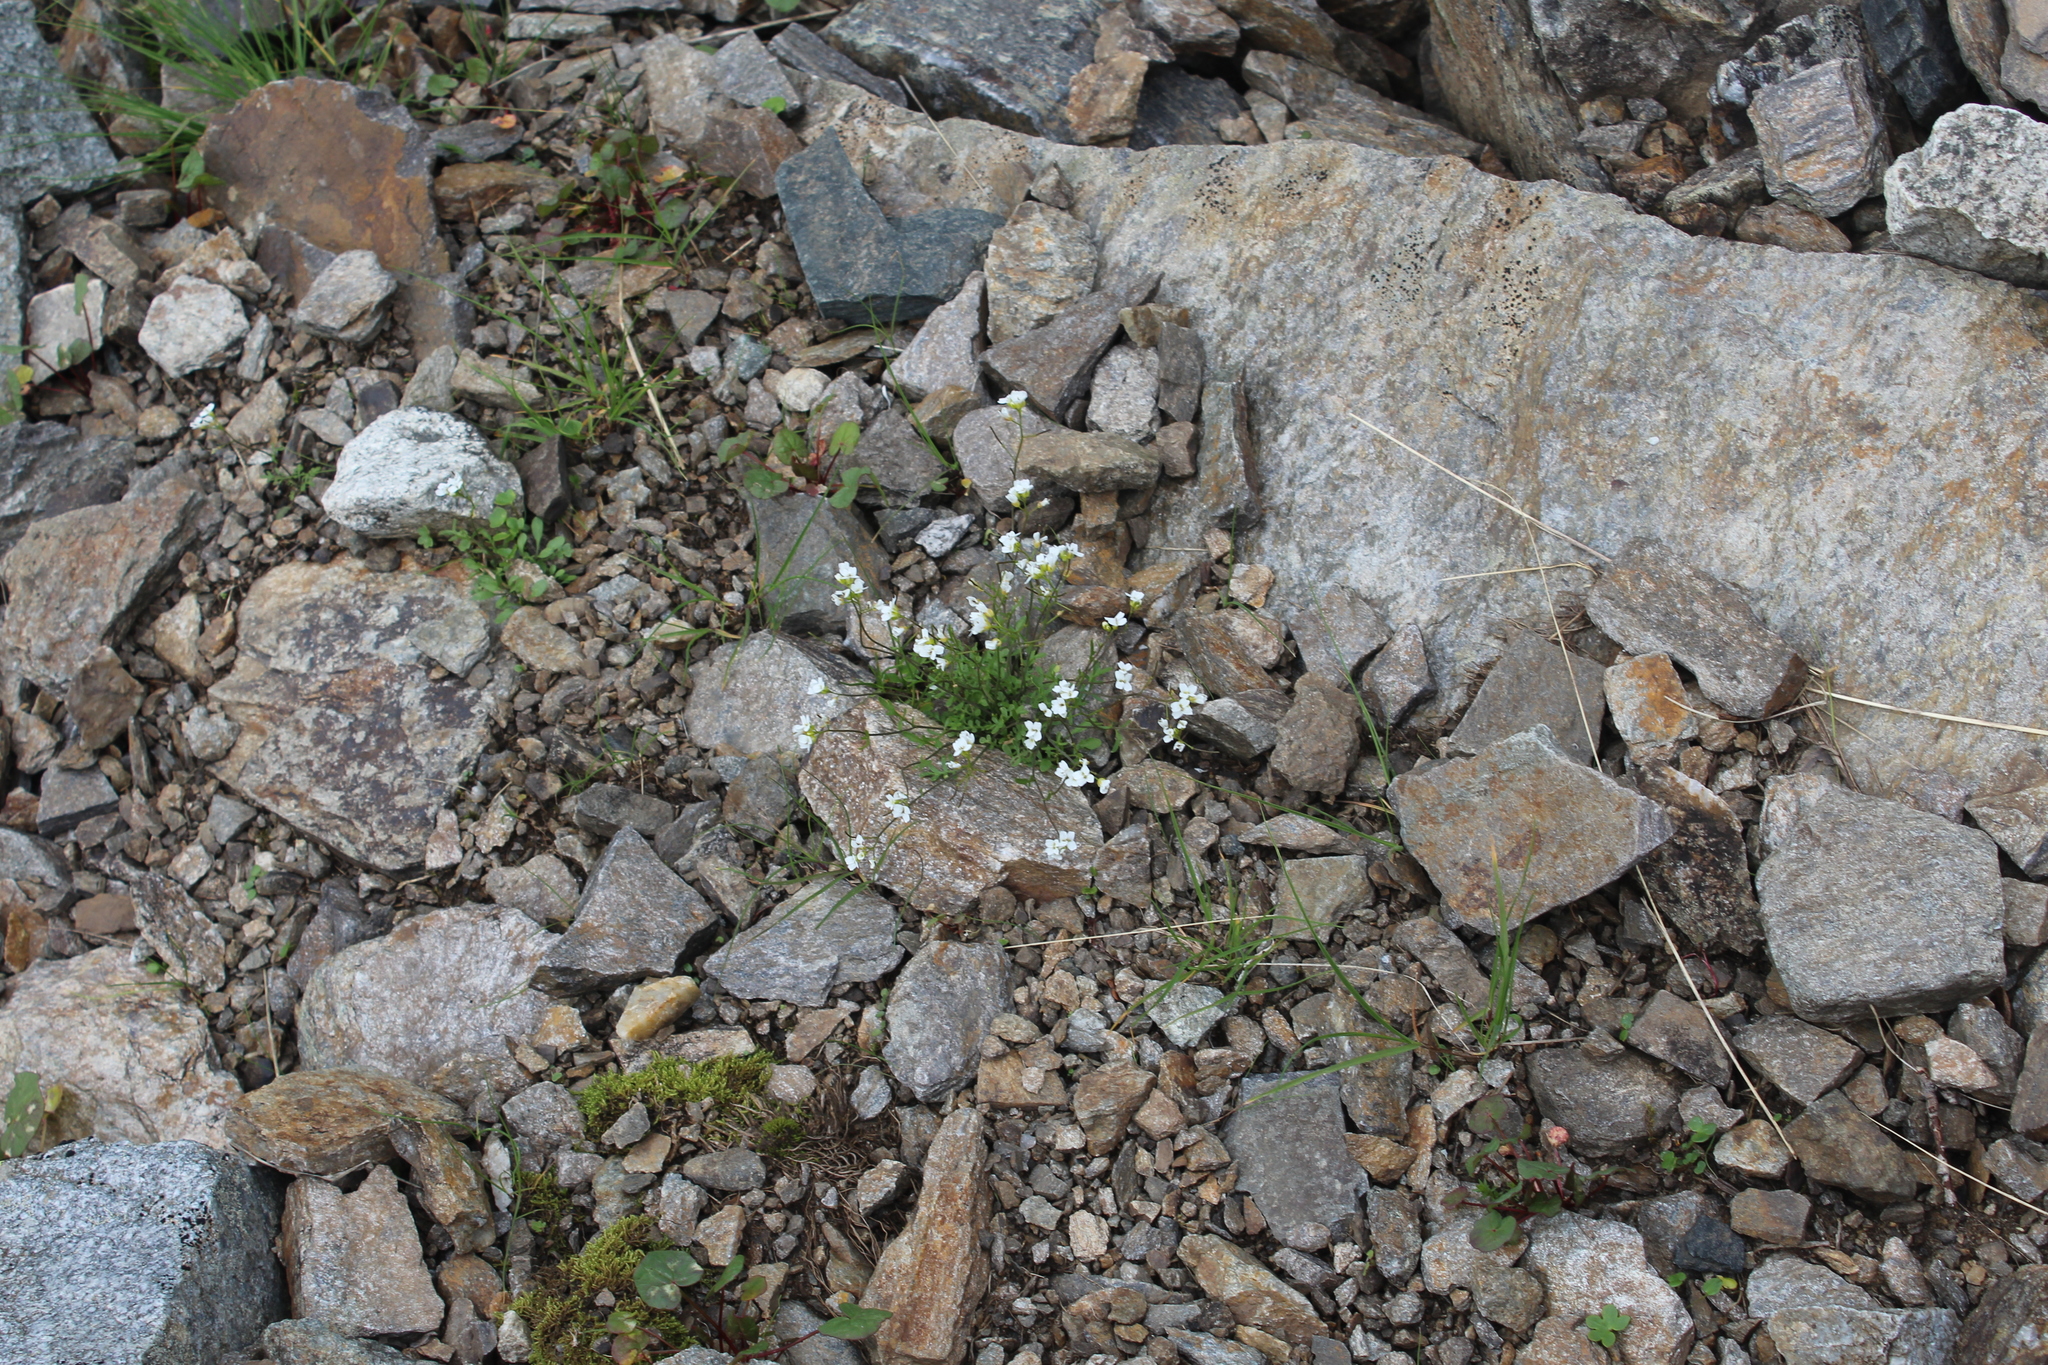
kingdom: Plantae
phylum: Tracheophyta
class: Magnoliopsida
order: Brassicales
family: Brassicaceae
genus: Murbeckiella
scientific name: Murbeckiella huetii
